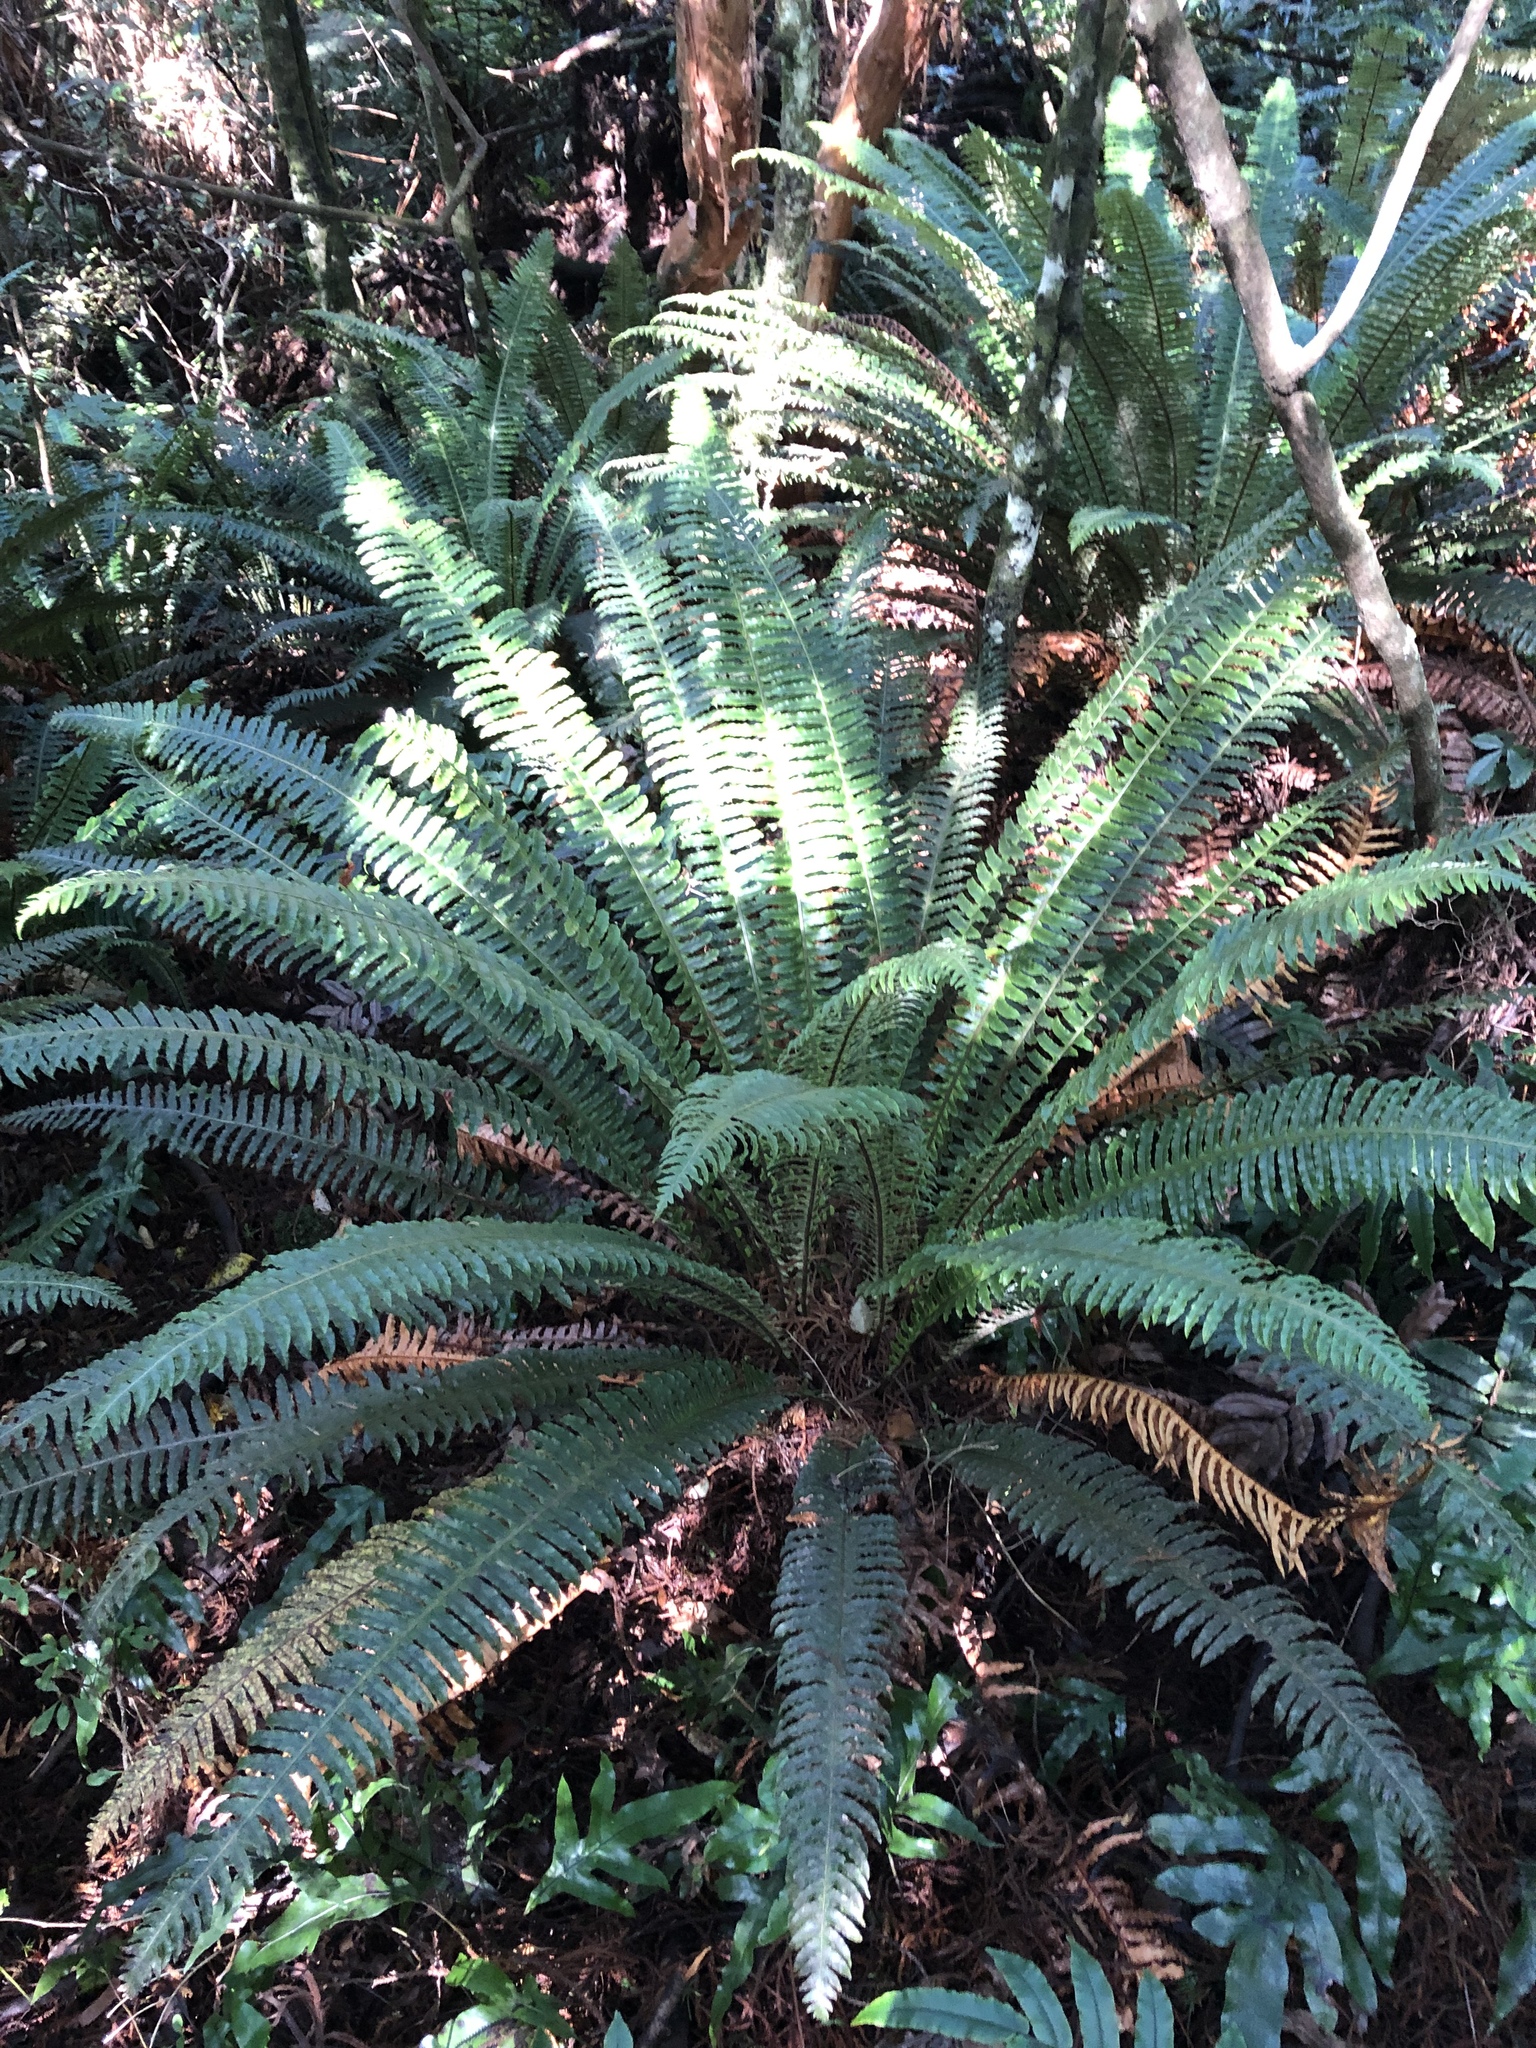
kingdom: Plantae
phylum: Tracheophyta
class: Polypodiopsida
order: Polypodiales
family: Blechnaceae
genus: Lomaria
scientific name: Lomaria discolor
